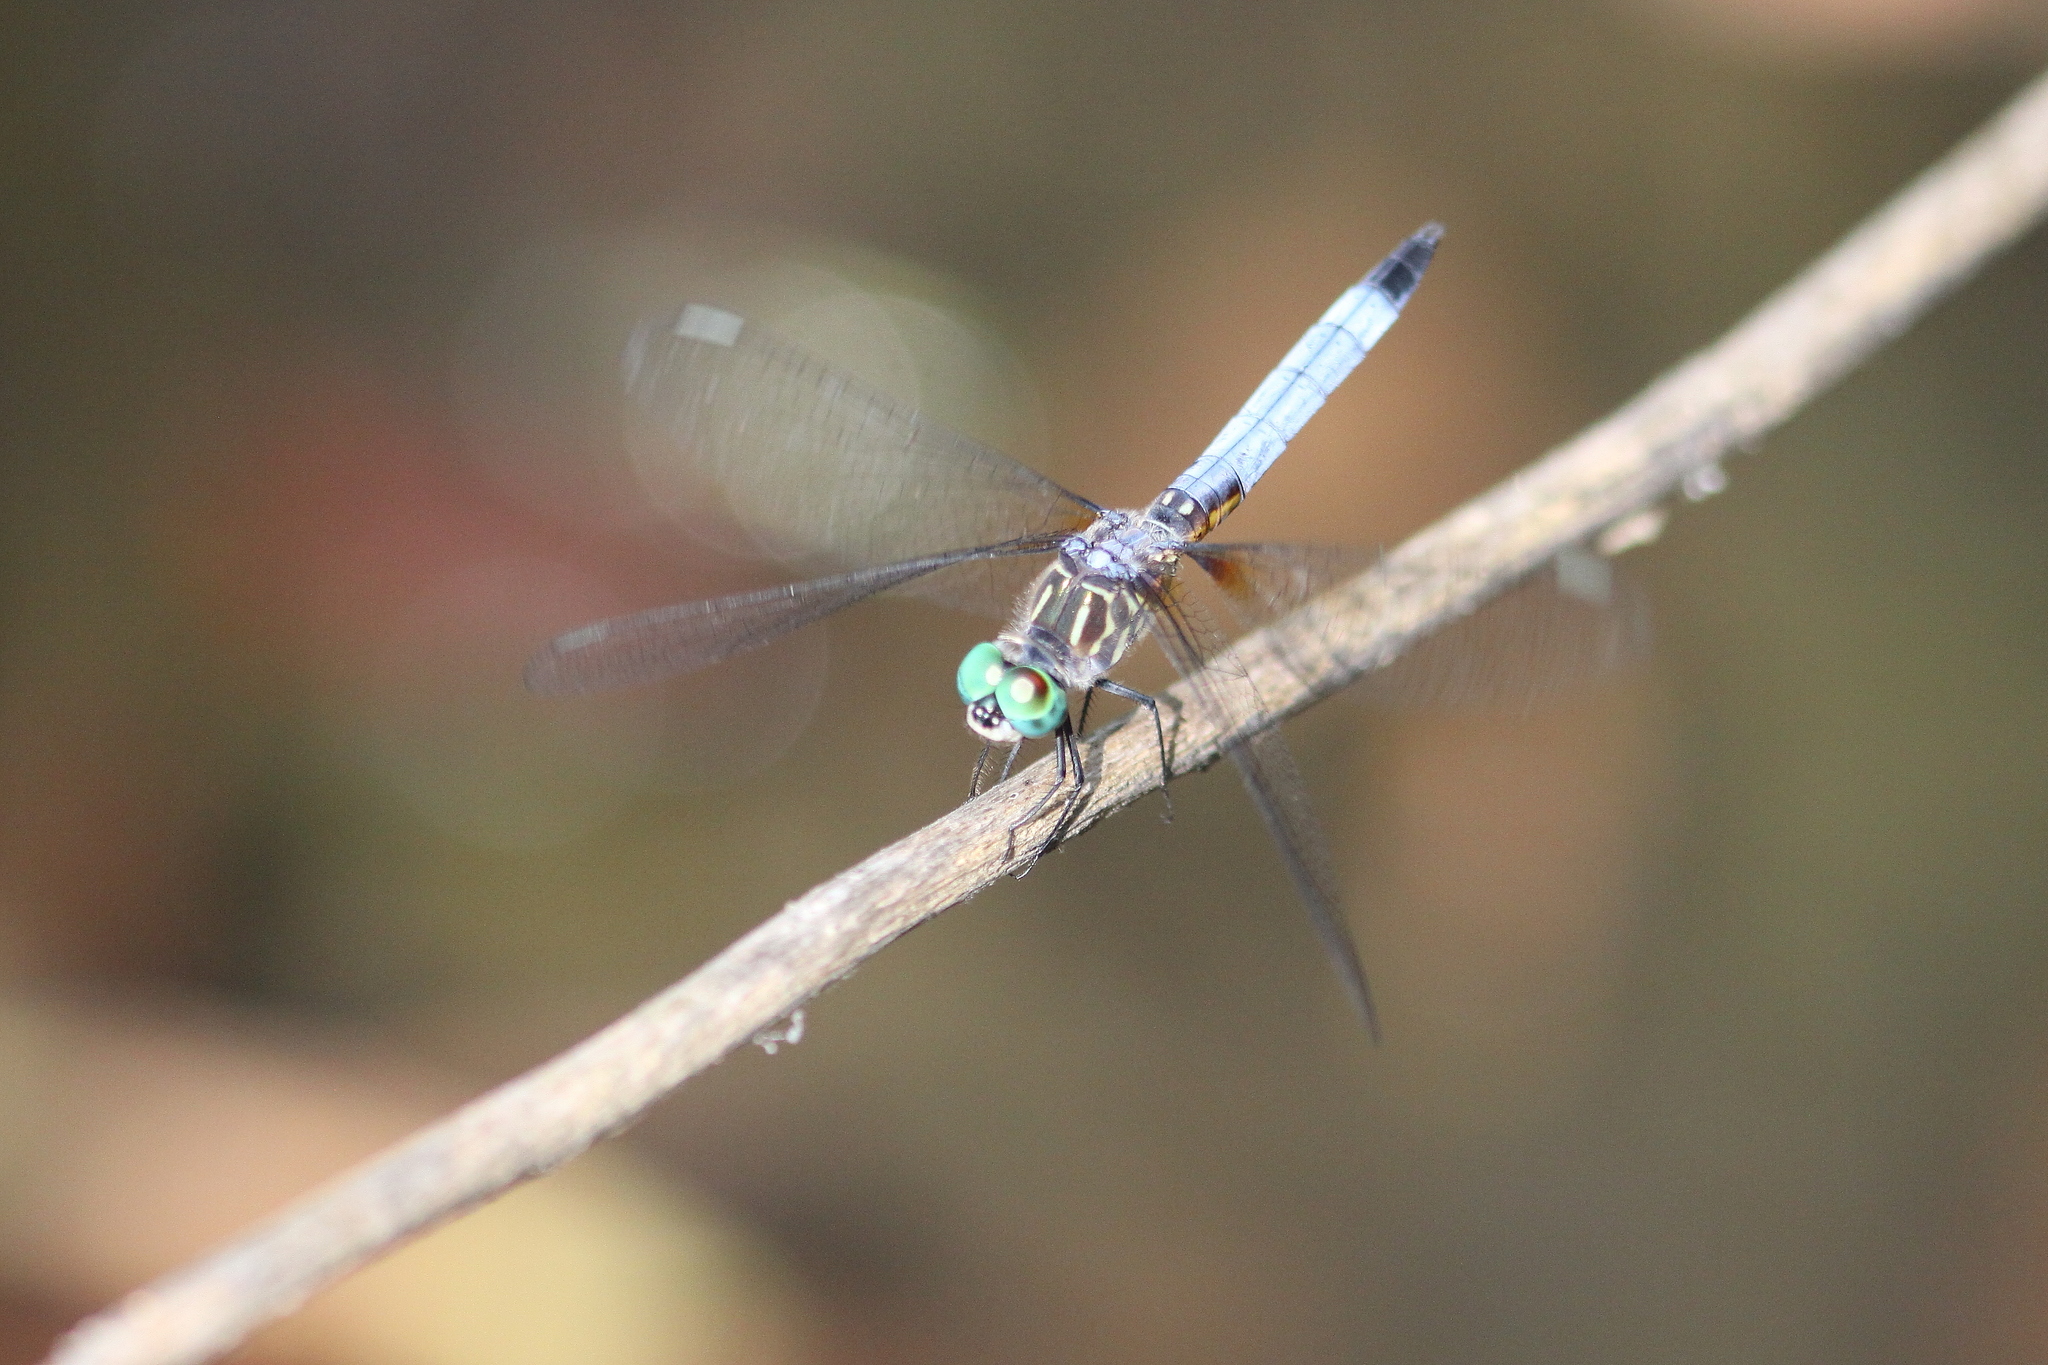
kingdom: Animalia
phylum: Arthropoda
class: Insecta
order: Odonata
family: Libellulidae
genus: Pachydiplax
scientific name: Pachydiplax longipennis
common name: Blue dasher
